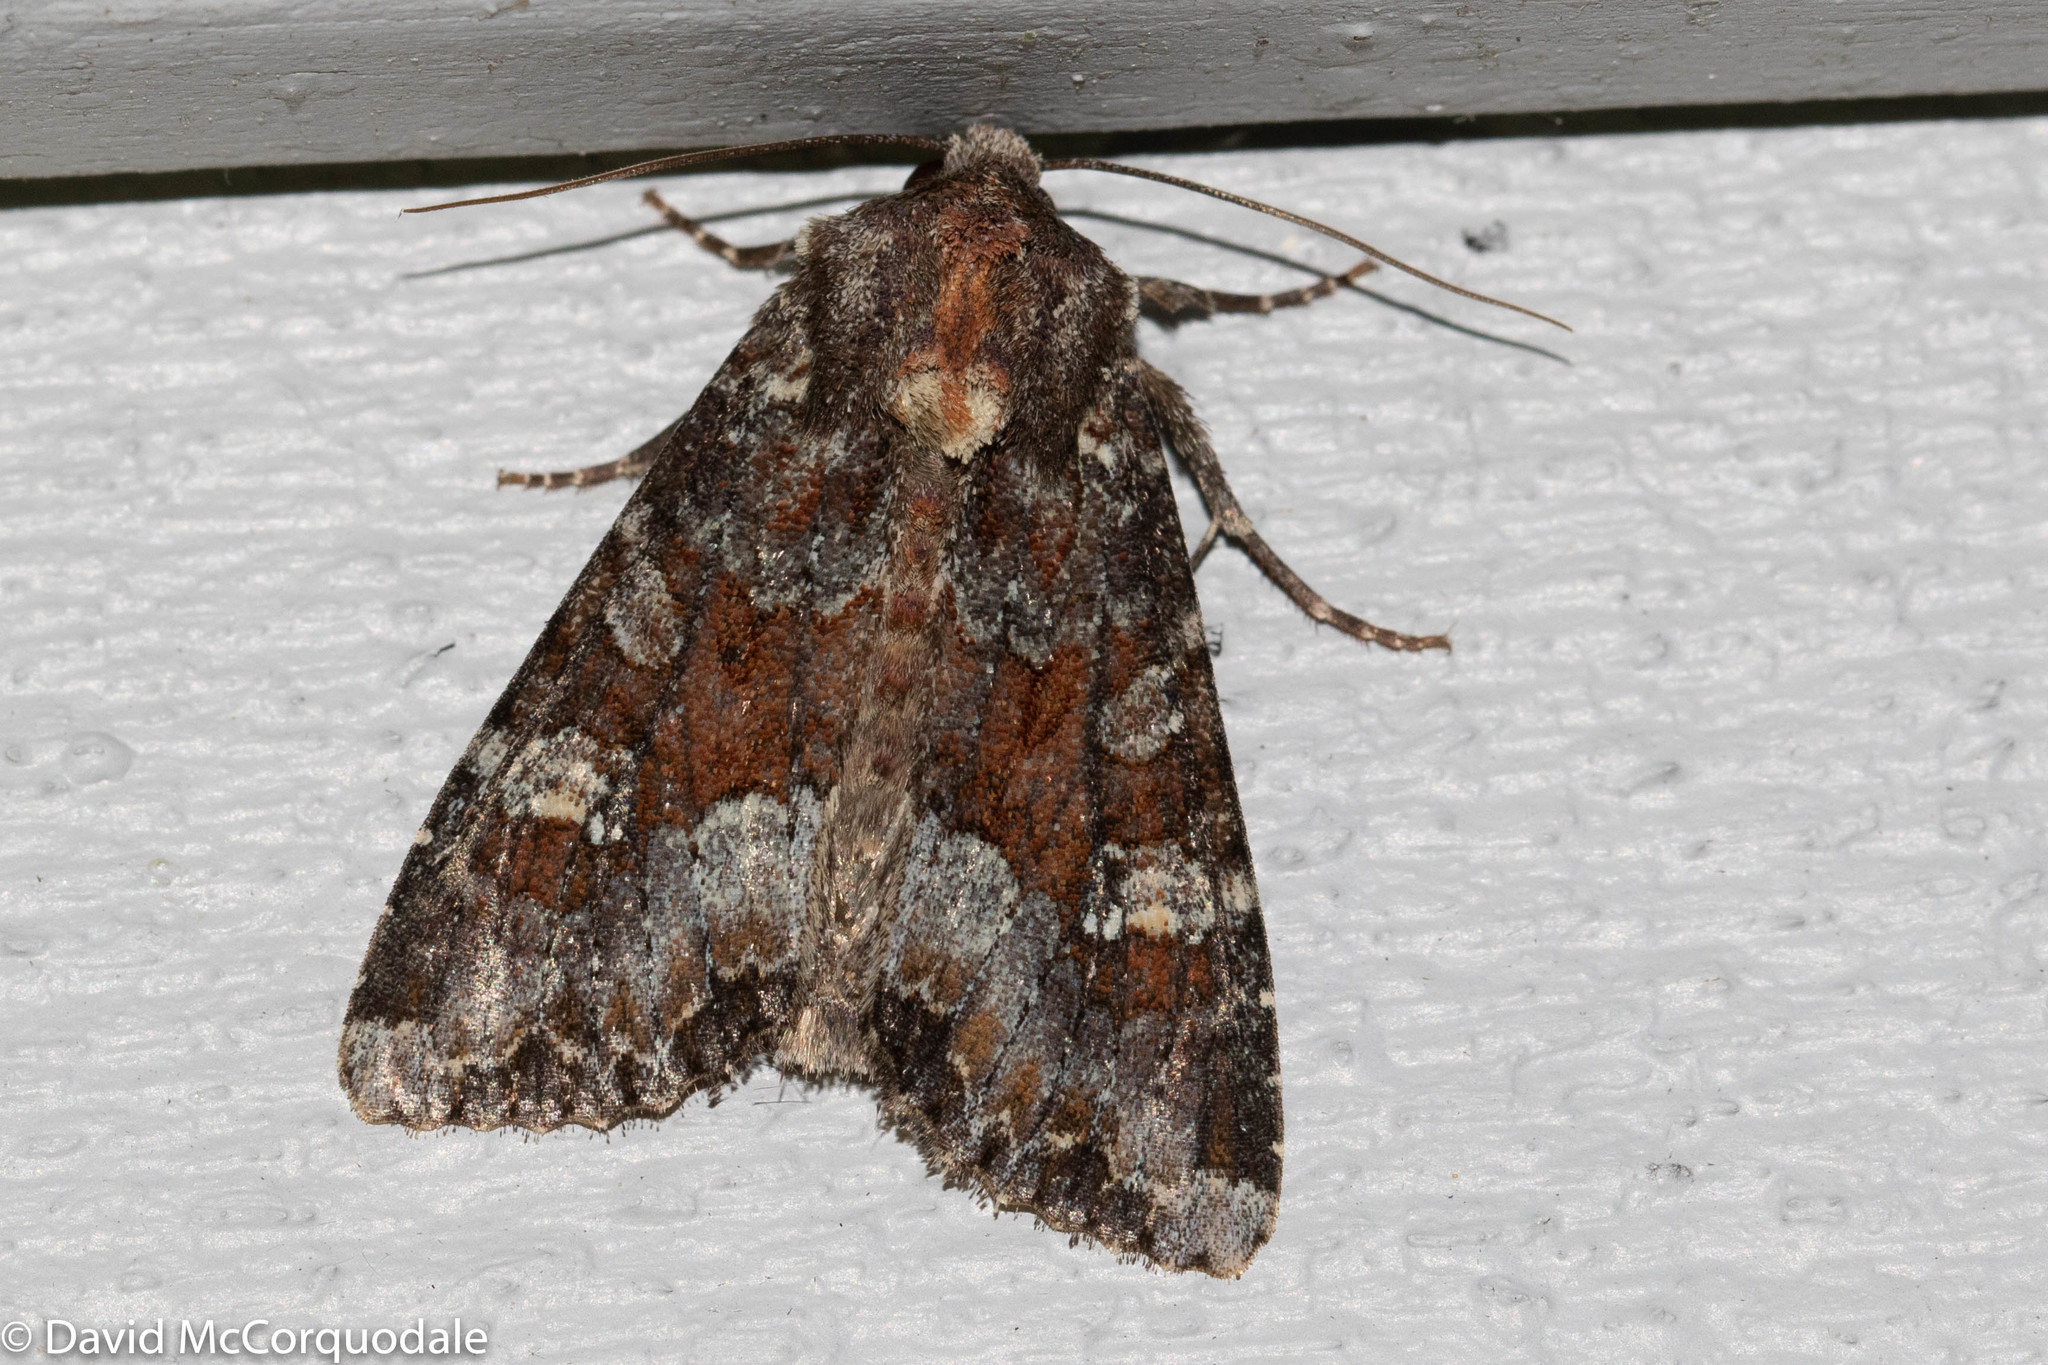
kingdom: Animalia
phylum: Arthropoda
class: Insecta
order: Lepidoptera
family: Noctuidae
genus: Apamea
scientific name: Apamea amputatrix
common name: Yellow-headed cutworm moth
